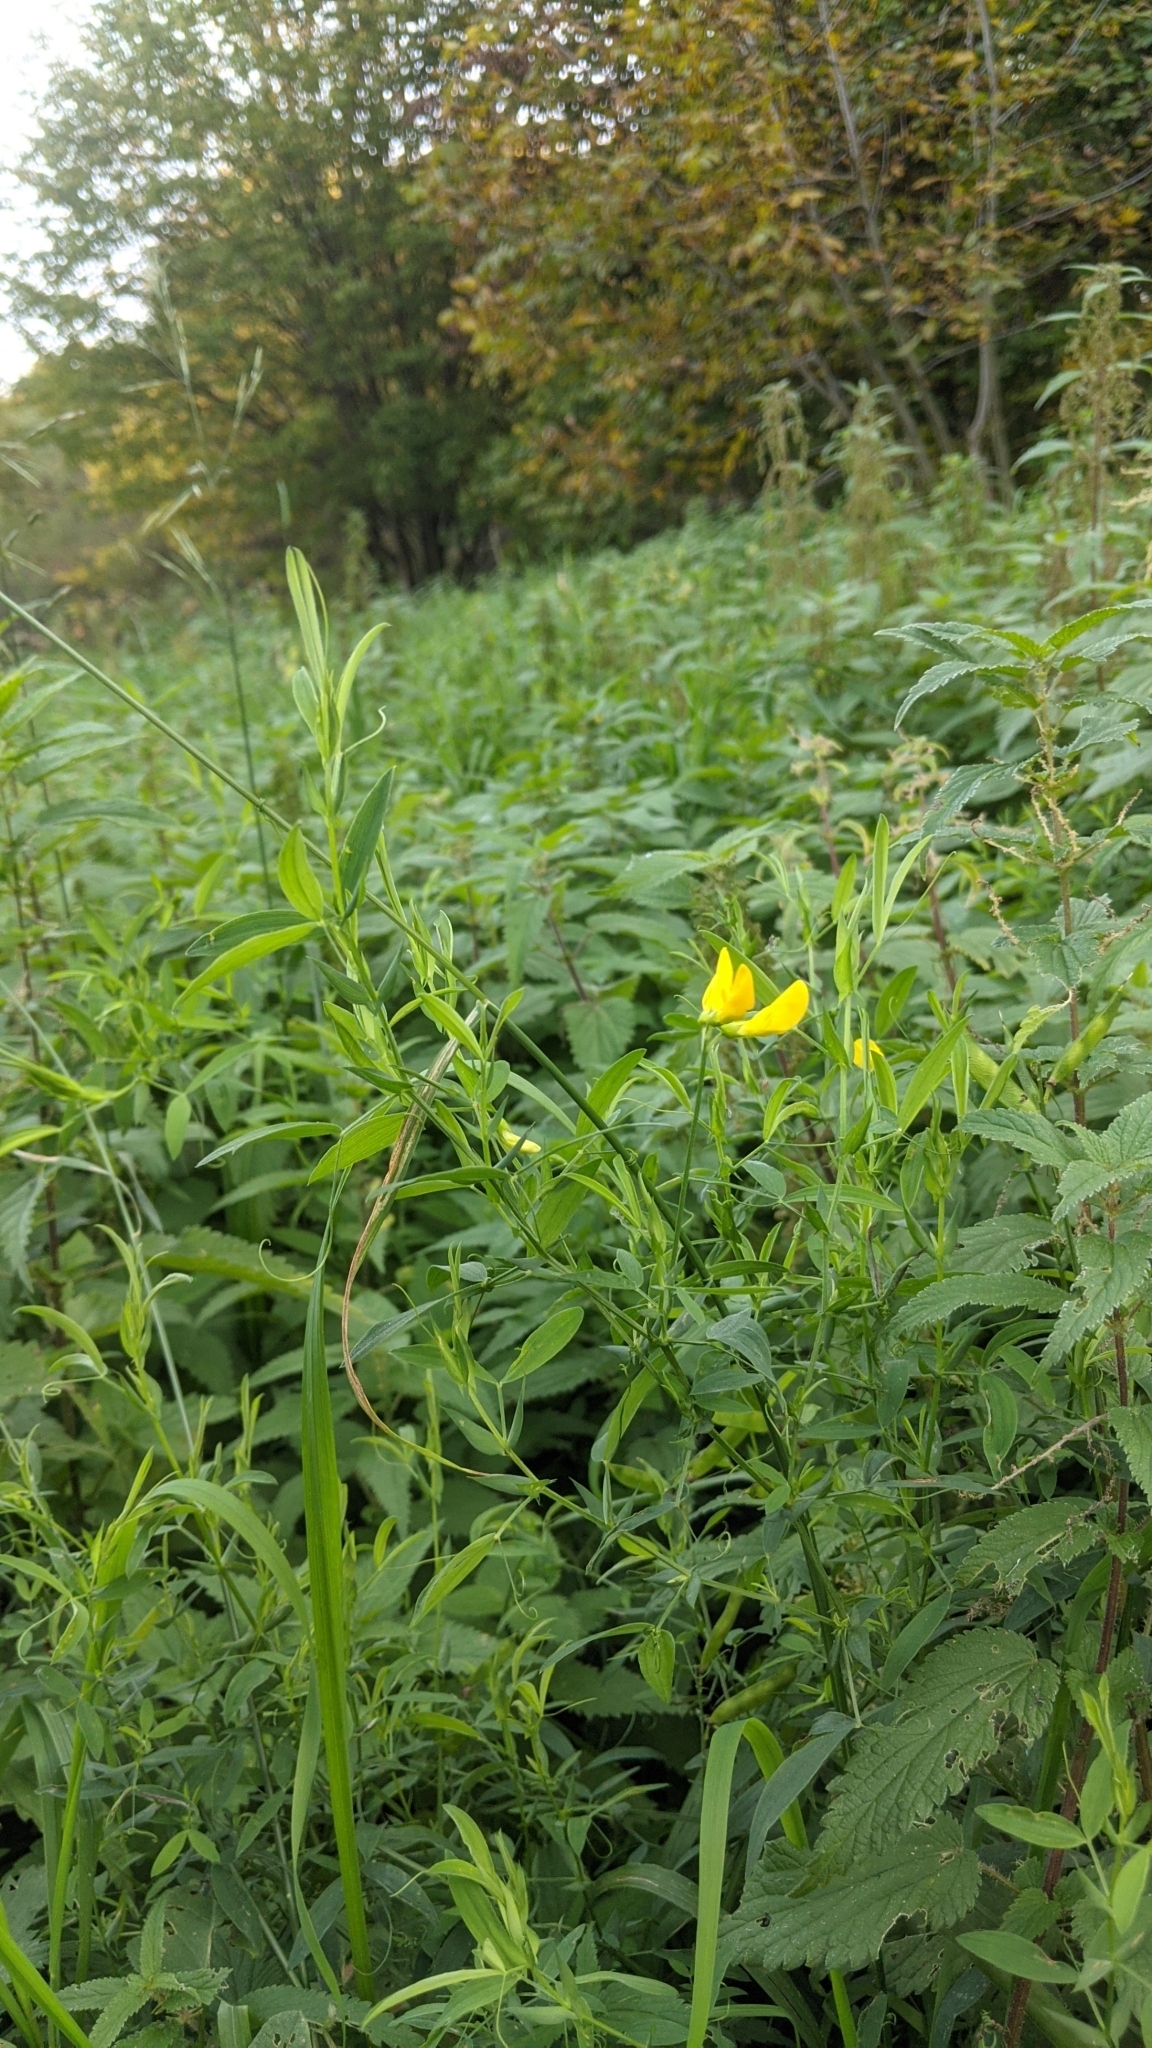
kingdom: Plantae
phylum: Tracheophyta
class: Magnoliopsida
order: Fabales
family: Fabaceae
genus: Lathyrus
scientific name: Lathyrus pratensis
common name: Meadow vetchling
